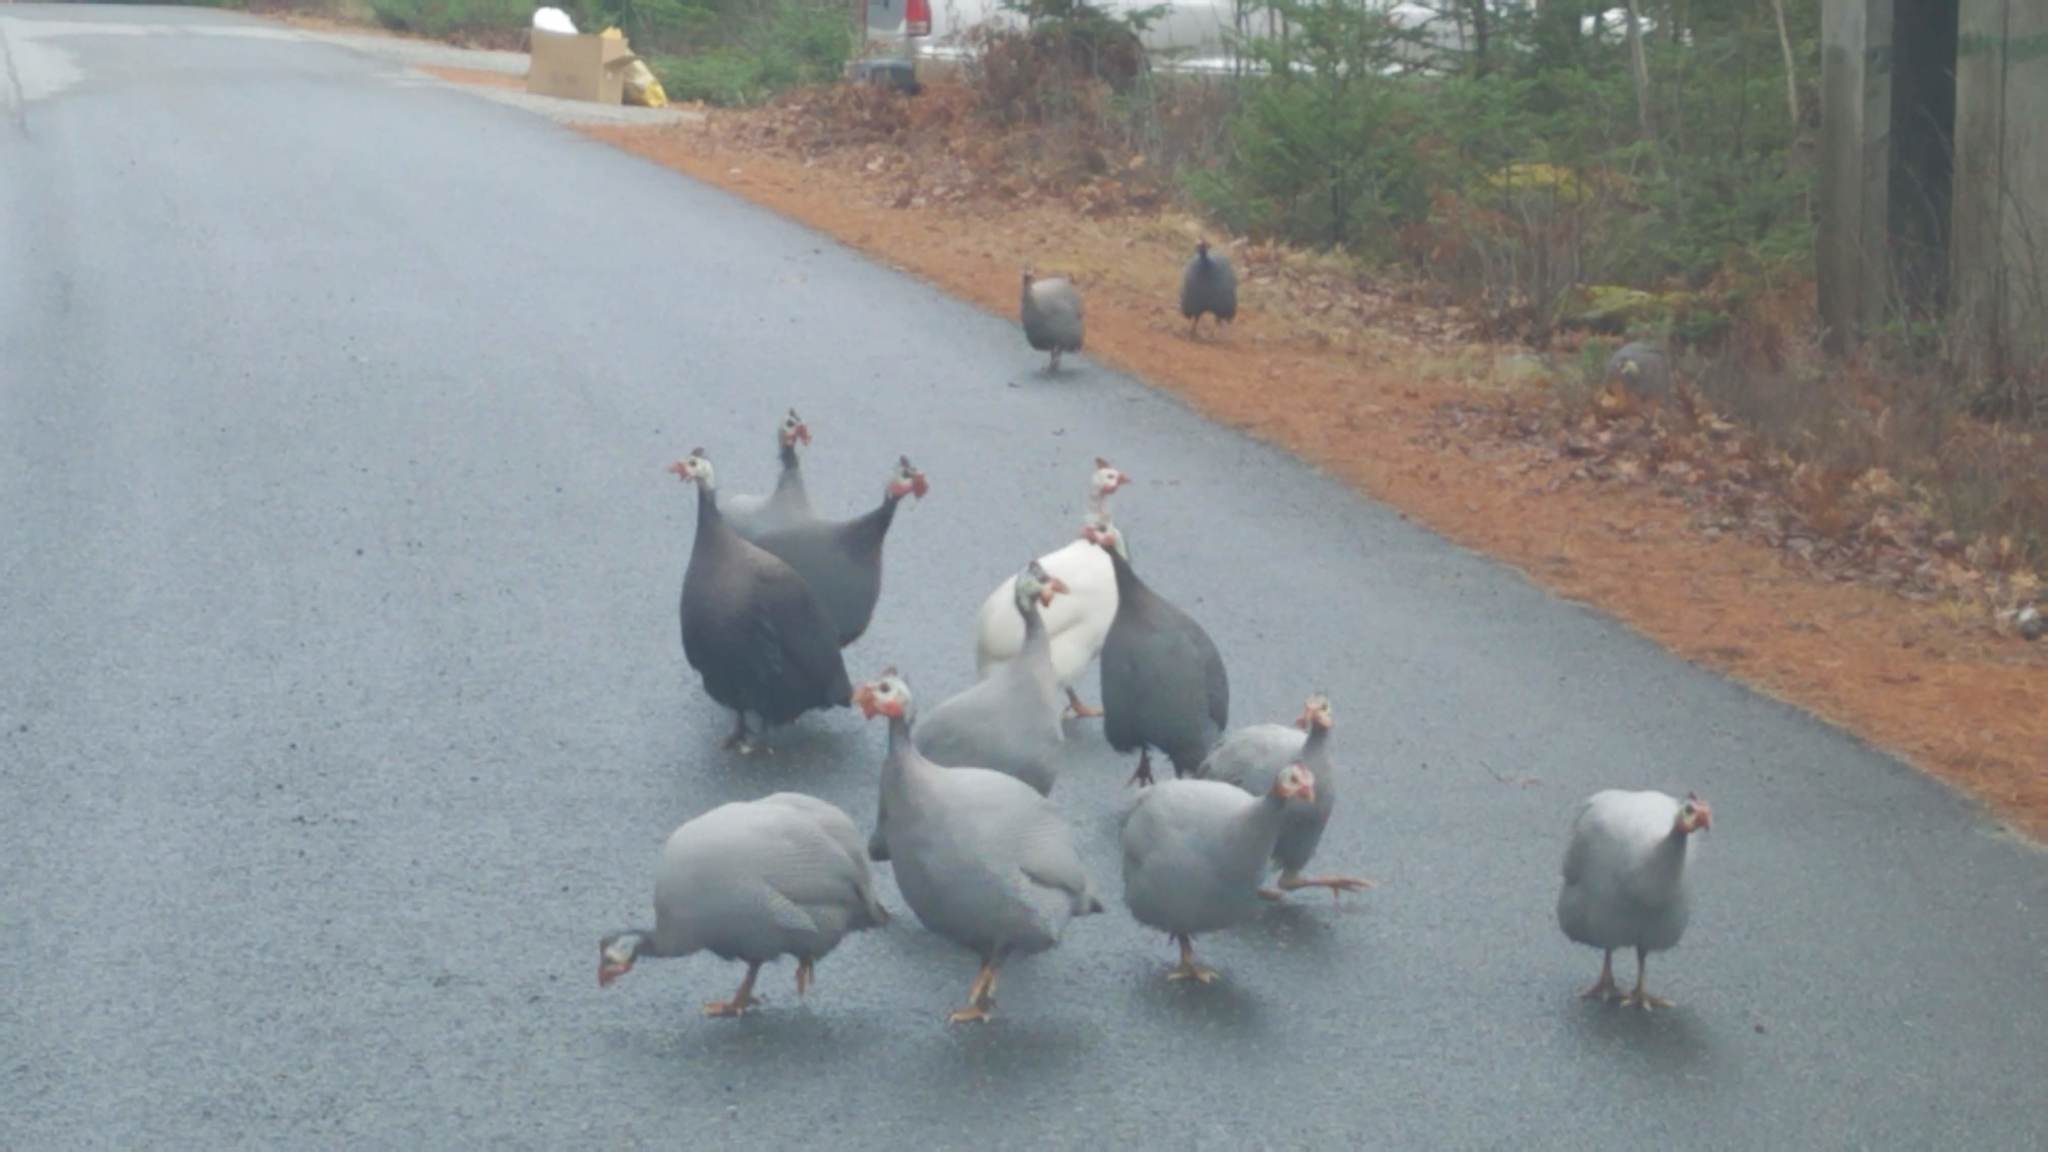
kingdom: Animalia
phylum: Chordata
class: Aves
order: Galliformes
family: Numididae
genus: Numida
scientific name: Numida meleagris
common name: Helmeted guineafowl
